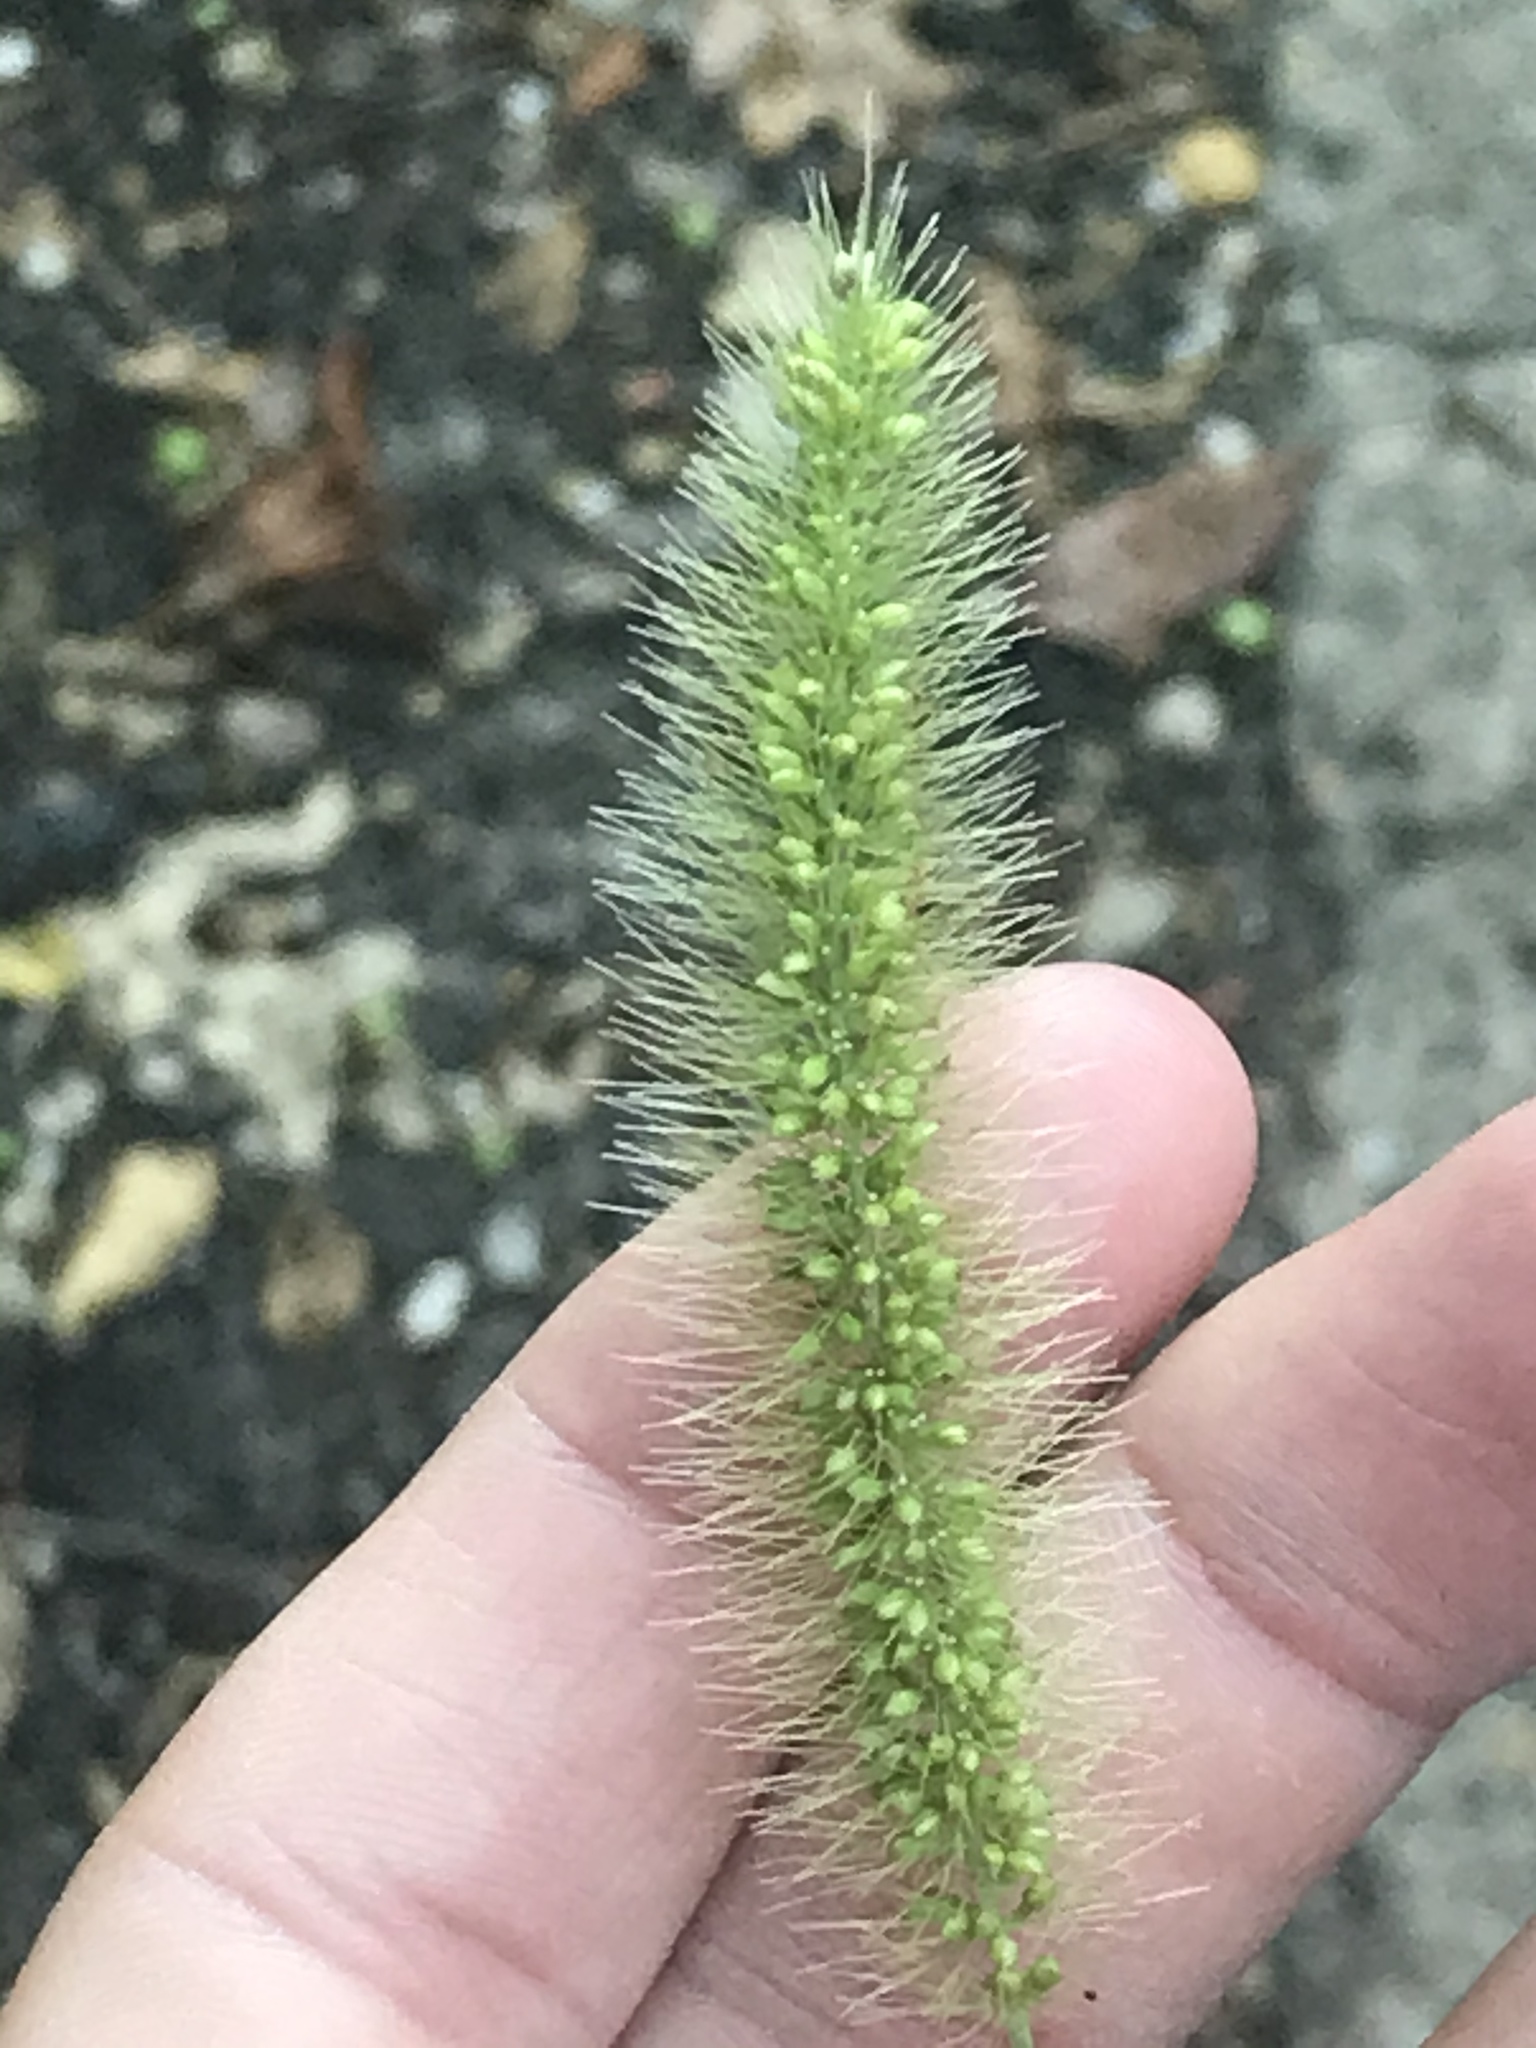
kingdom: Plantae
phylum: Tracheophyta
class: Liliopsida
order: Poales
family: Poaceae
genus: Setaria
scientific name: Setaria viridis
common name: Green bristlegrass
